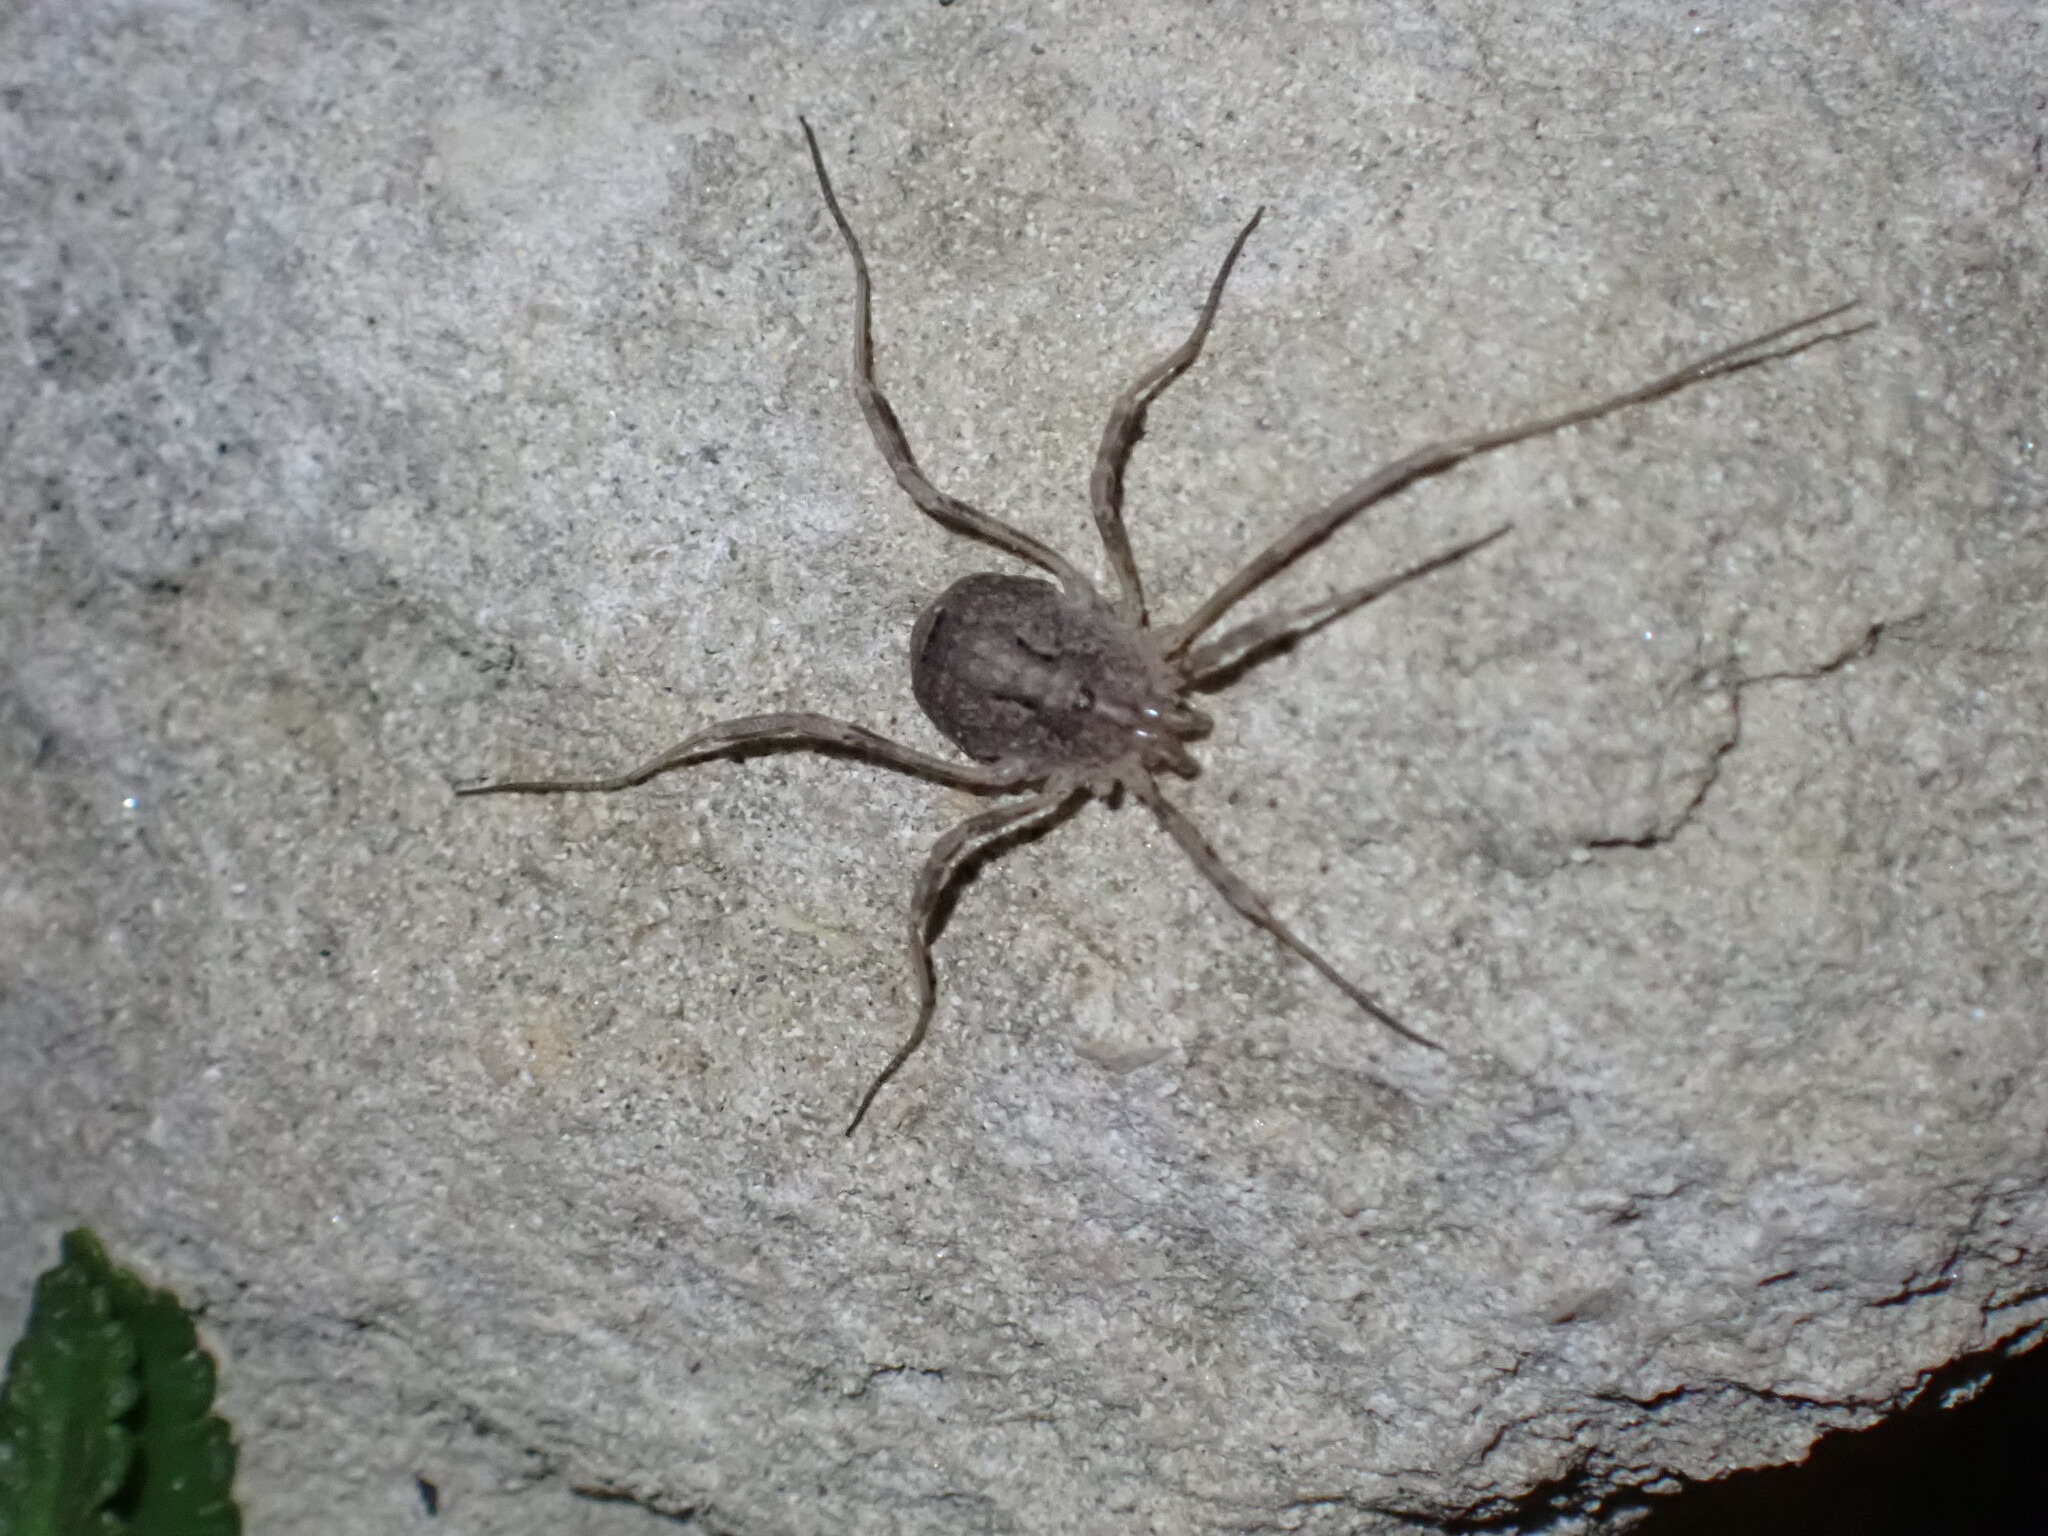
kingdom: Animalia
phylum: Arthropoda
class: Arachnida
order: Opiliones
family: Phalangiidae
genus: Odiellus
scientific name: Odiellus spinosus
